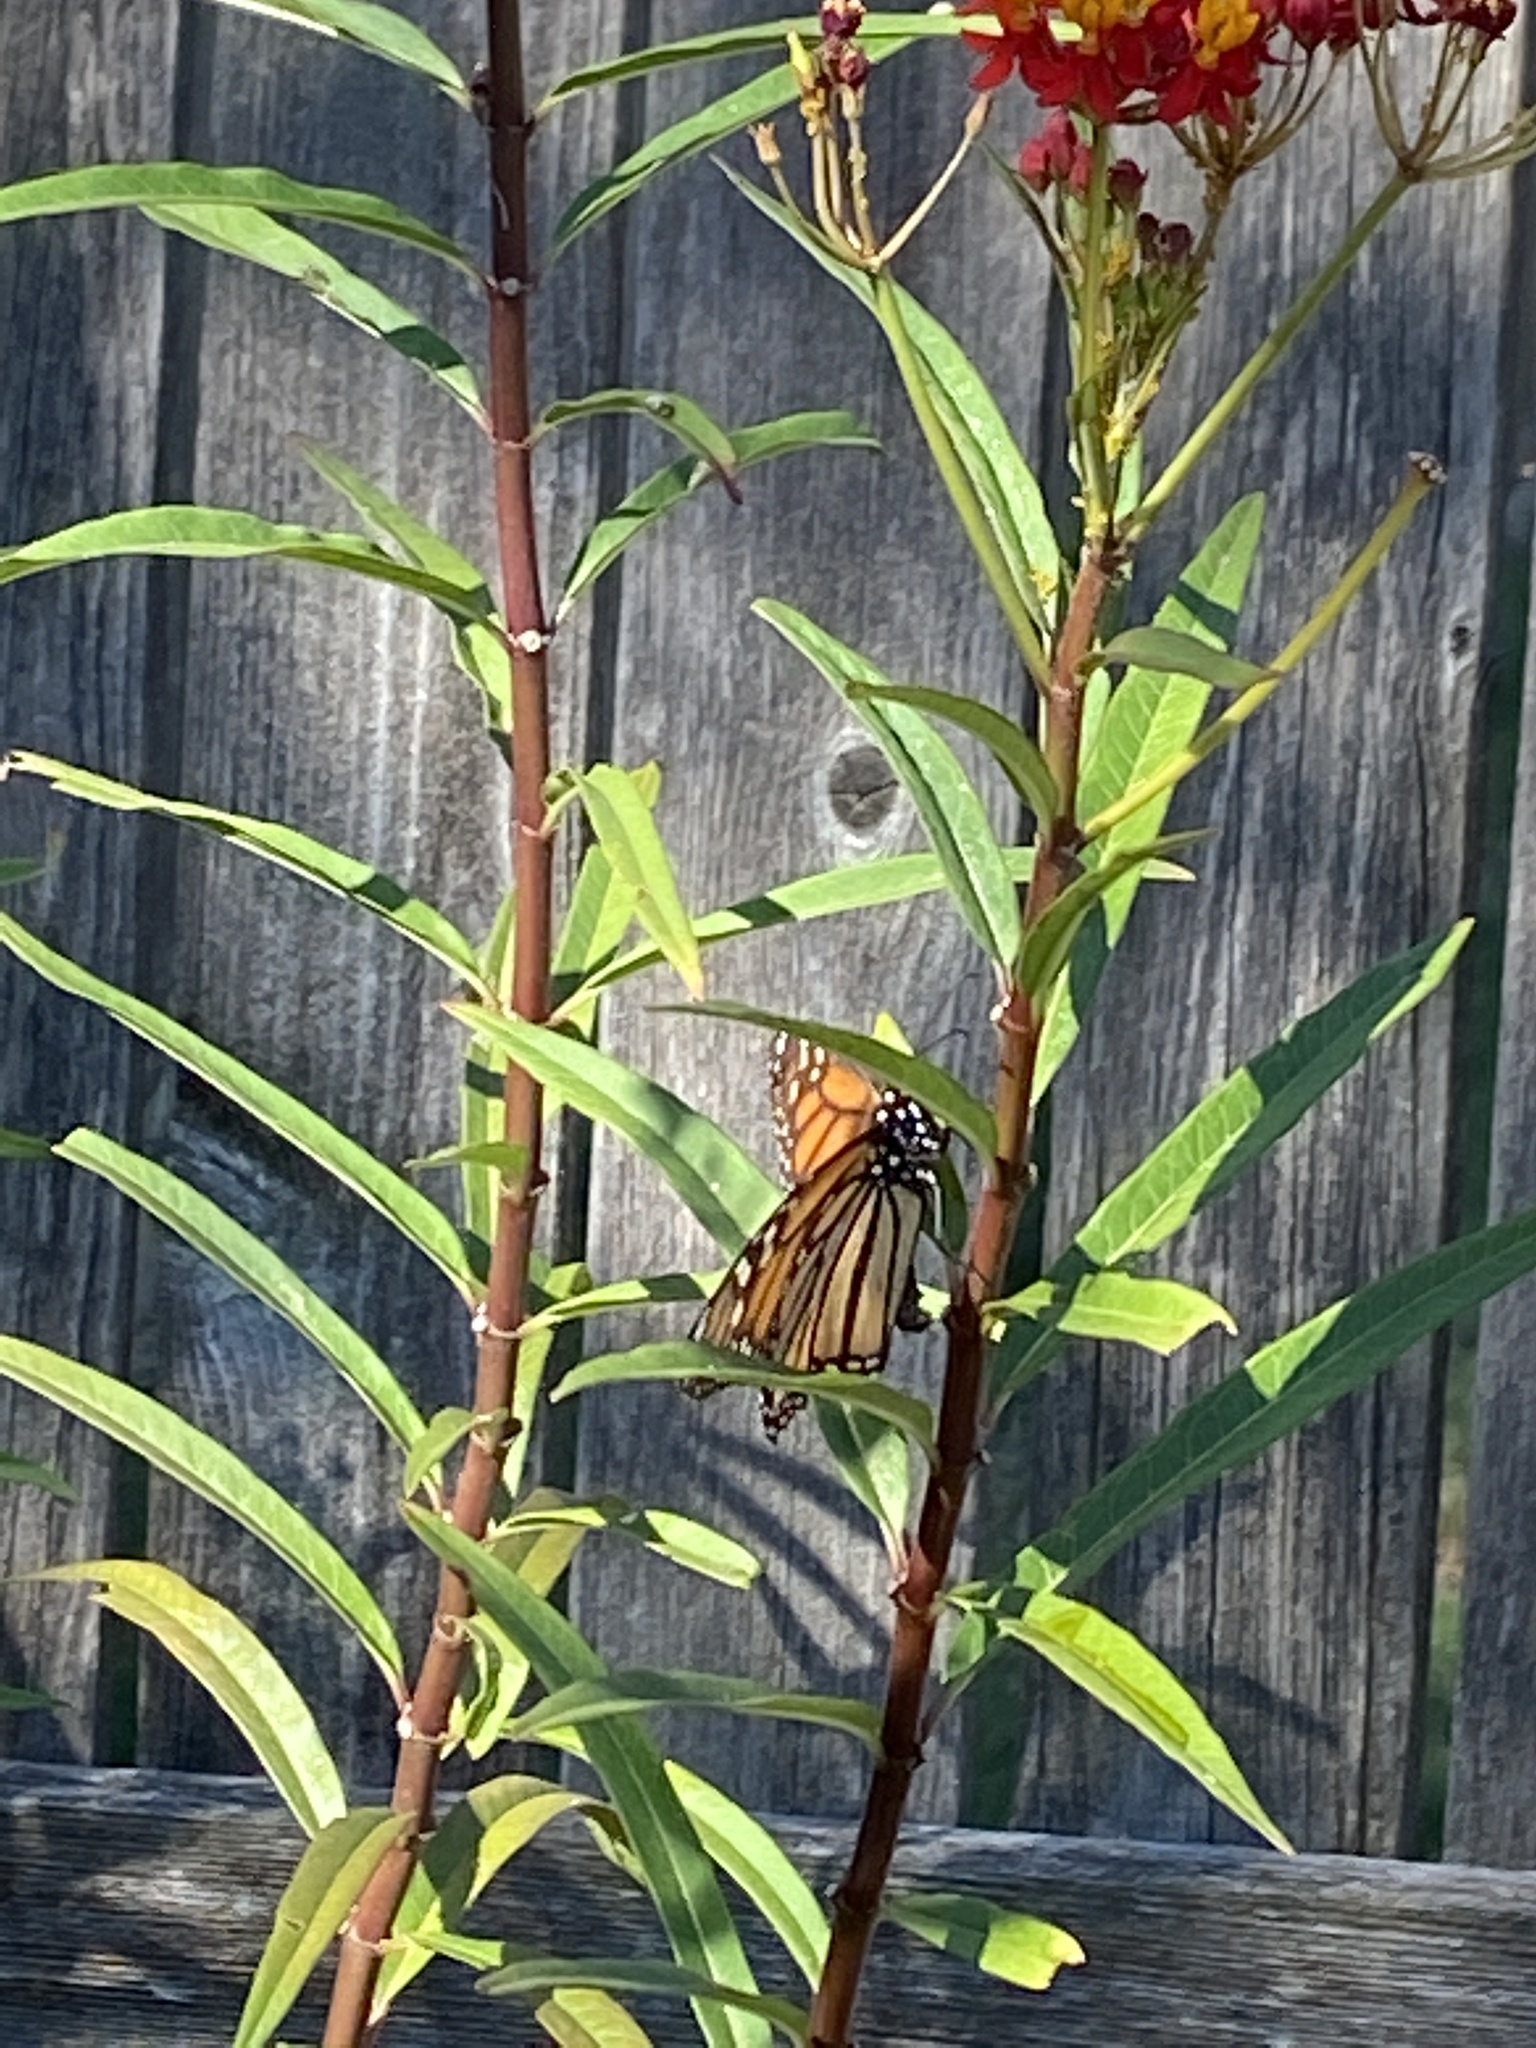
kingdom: Animalia
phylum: Arthropoda
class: Insecta
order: Lepidoptera
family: Nymphalidae
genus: Danaus
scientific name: Danaus plexippus
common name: Monarch
